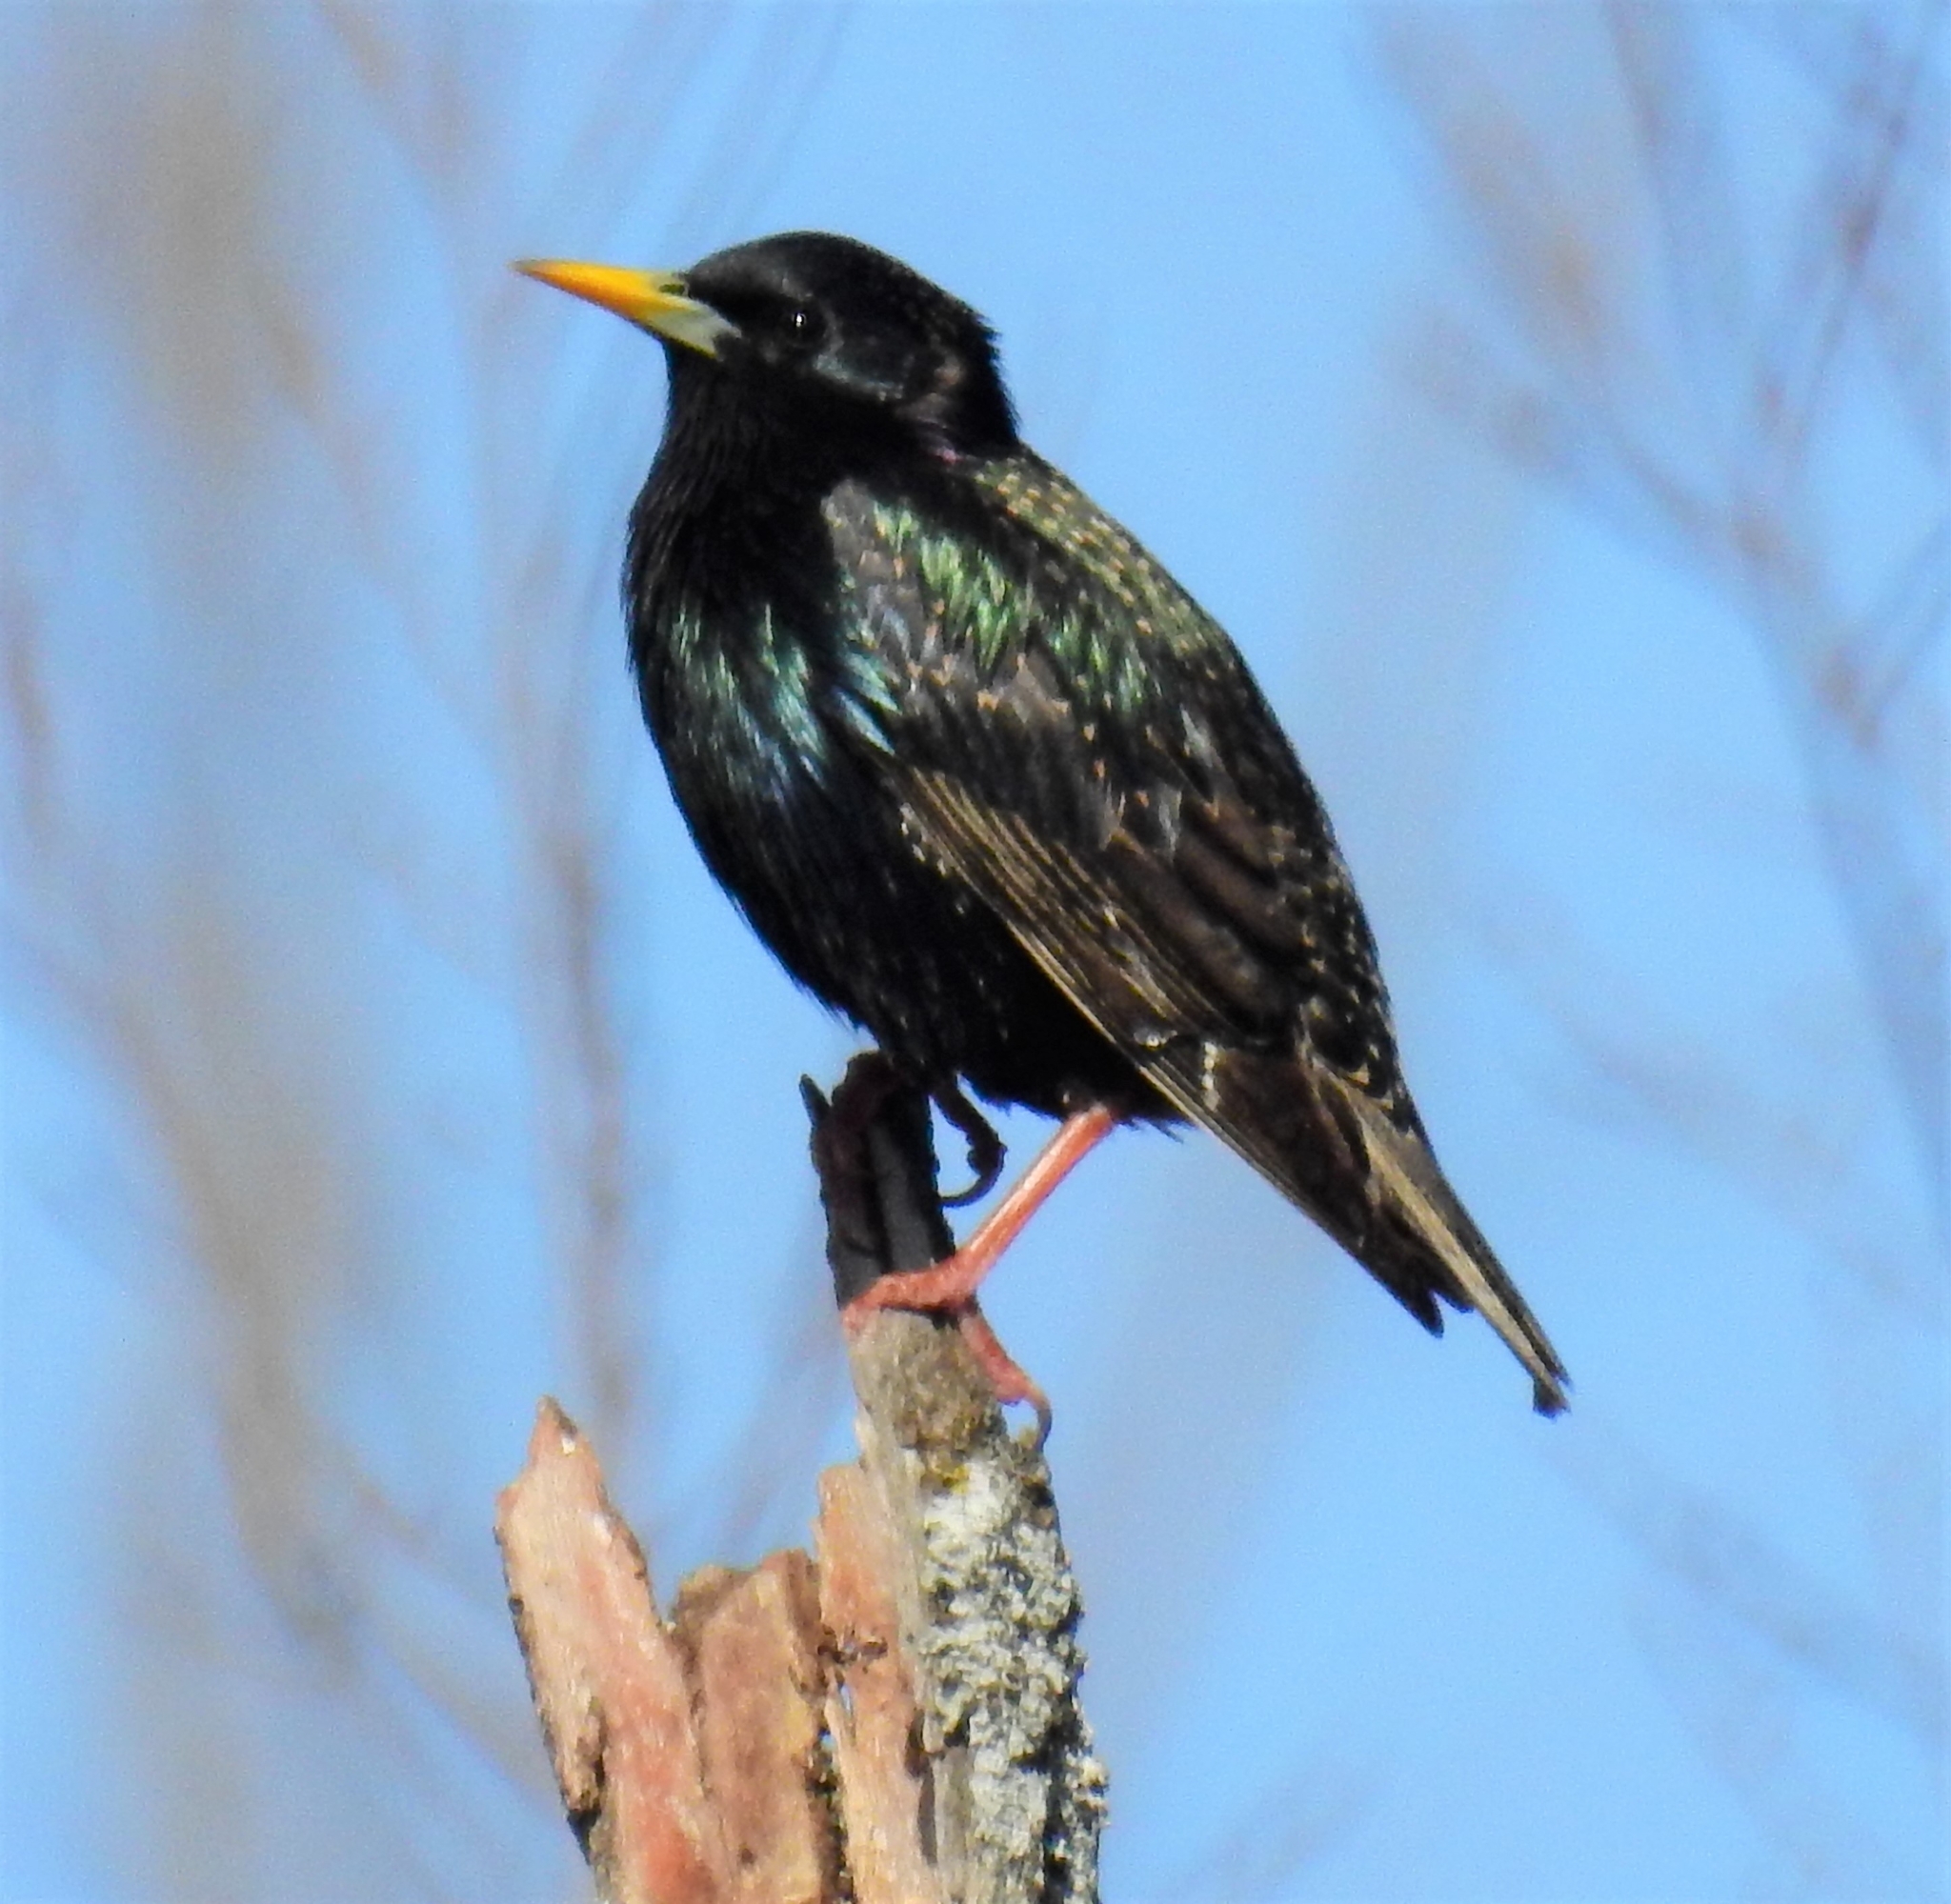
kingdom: Animalia
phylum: Chordata
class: Aves
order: Passeriformes
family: Sturnidae
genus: Sturnus
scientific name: Sturnus vulgaris
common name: Common starling
